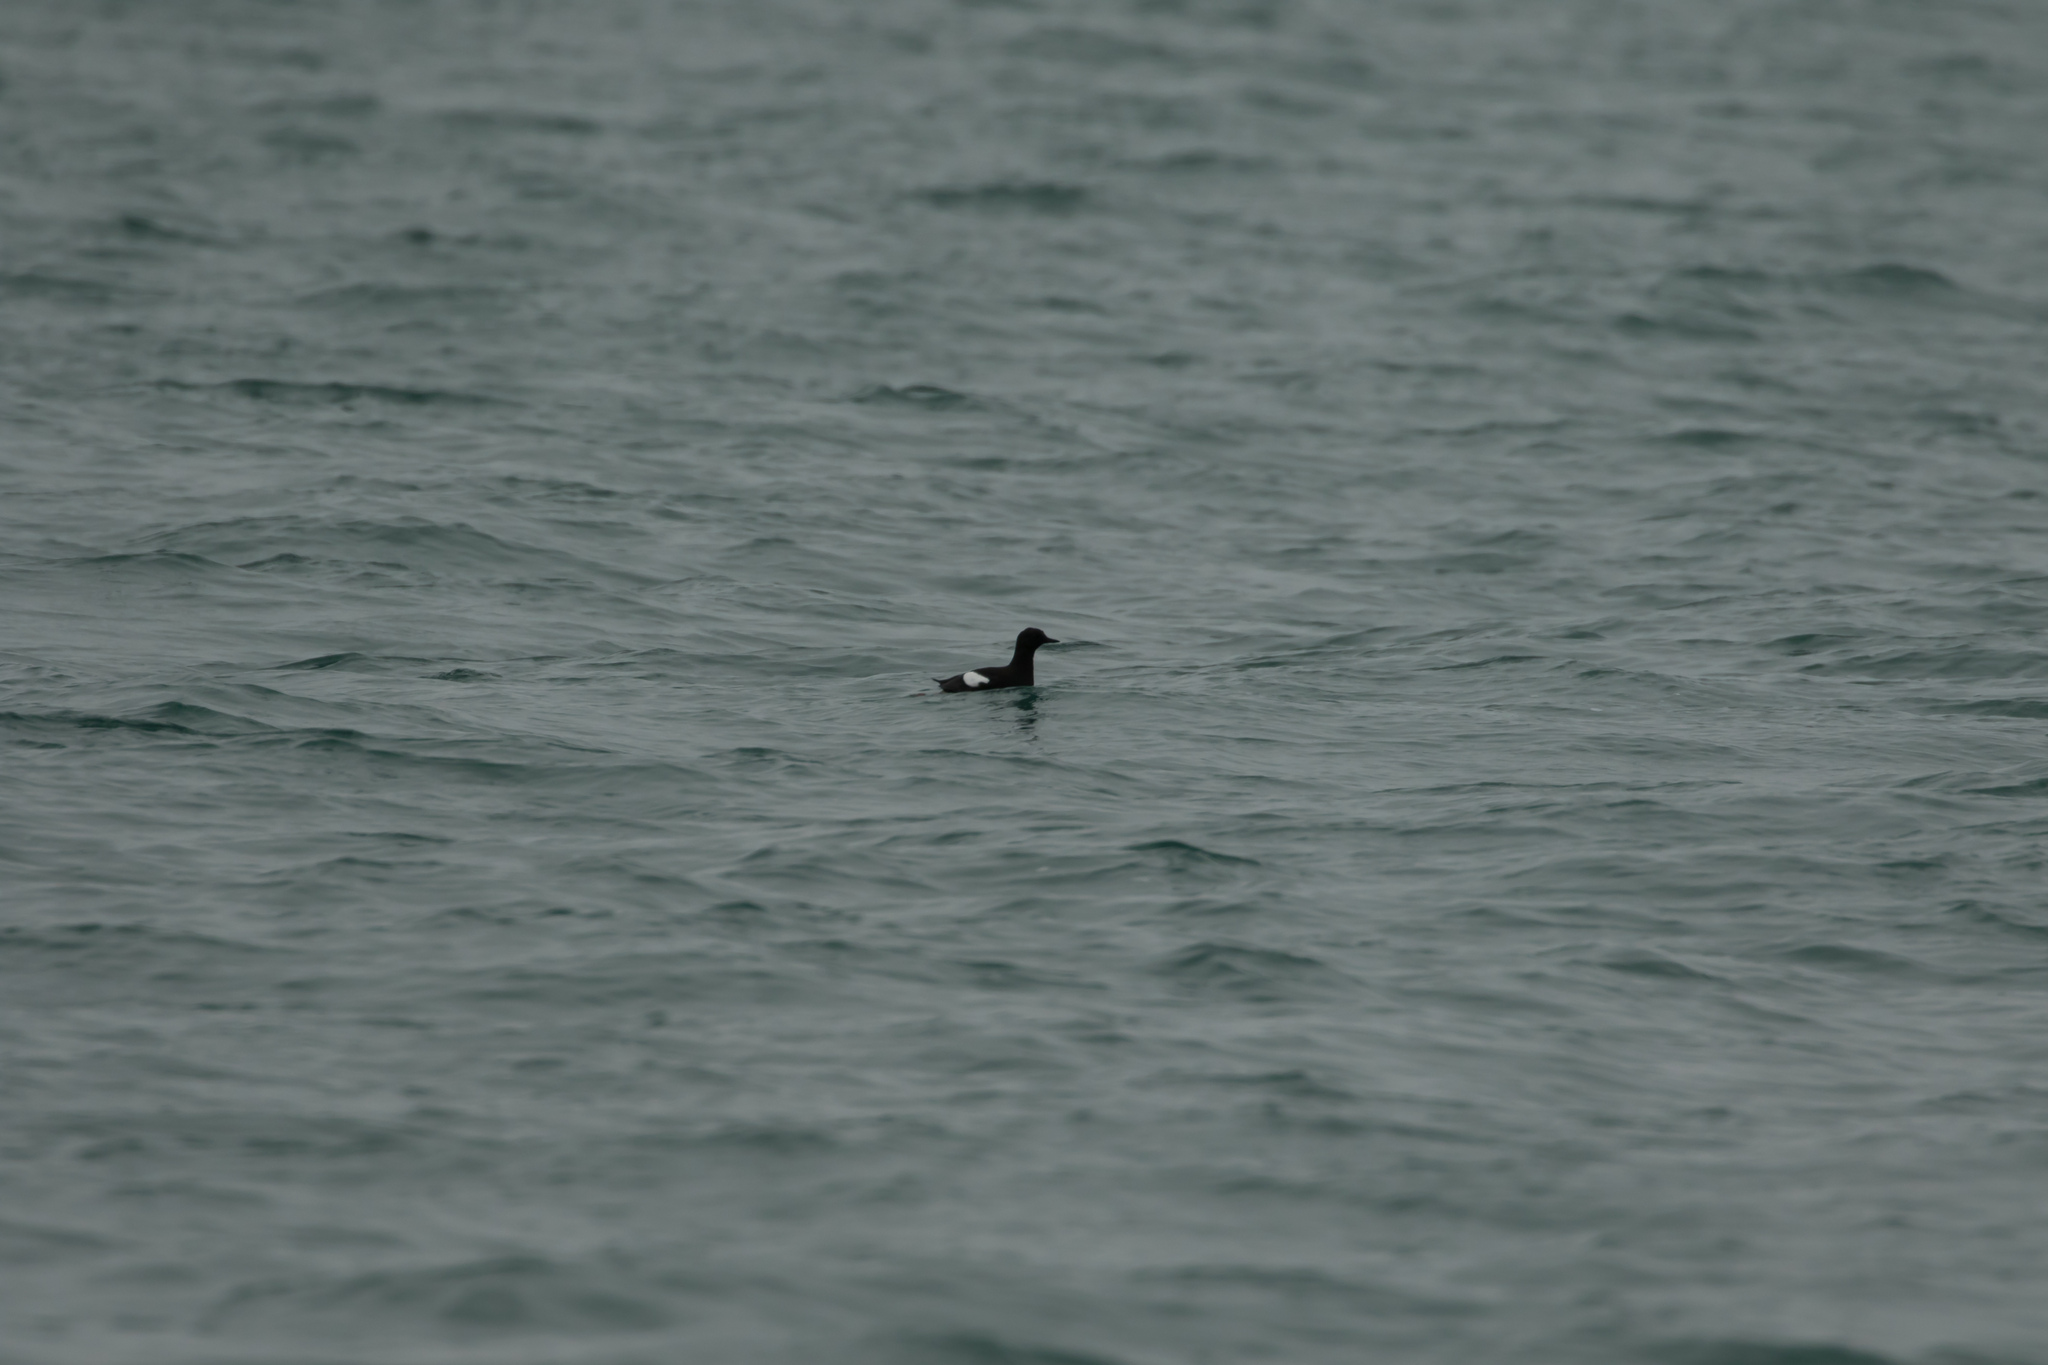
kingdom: Animalia
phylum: Chordata
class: Aves
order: Charadriiformes
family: Alcidae
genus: Cepphus
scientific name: Cepphus grylle
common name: Black guillemot
